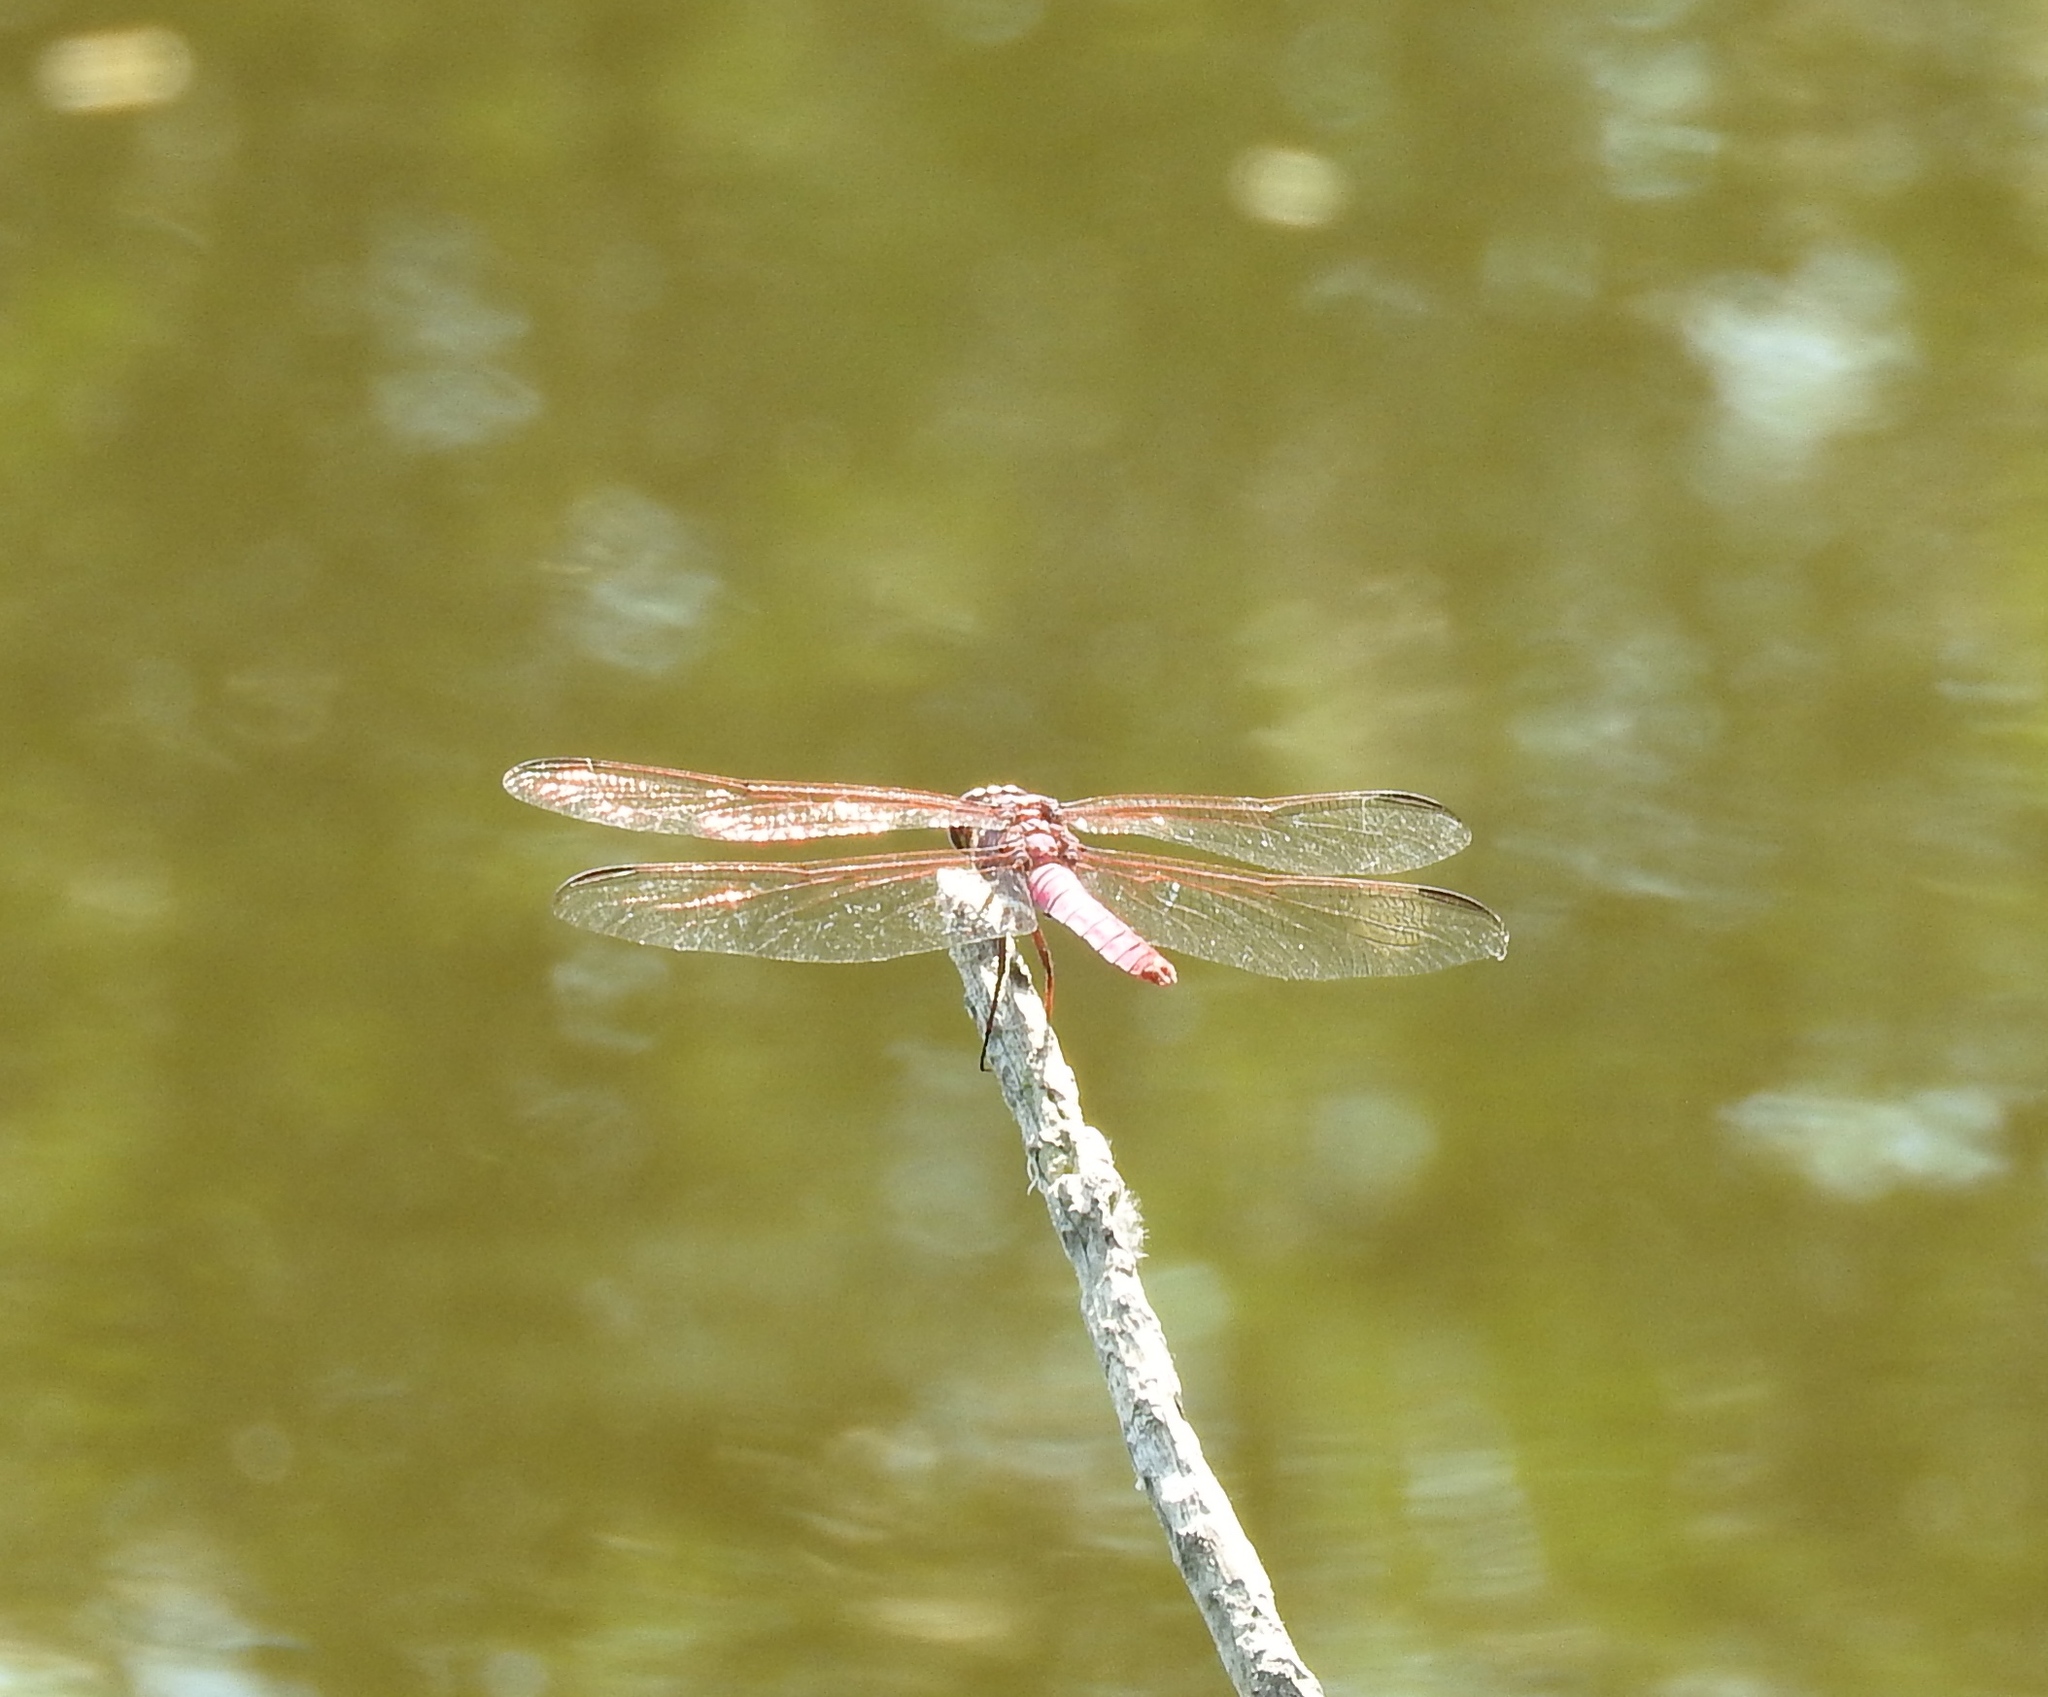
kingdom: Animalia
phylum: Arthropoda
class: Insecta
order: Odonata
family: Libellulidae
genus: Orthemis
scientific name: Orthemis ferruginea
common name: Roseate skimmer
